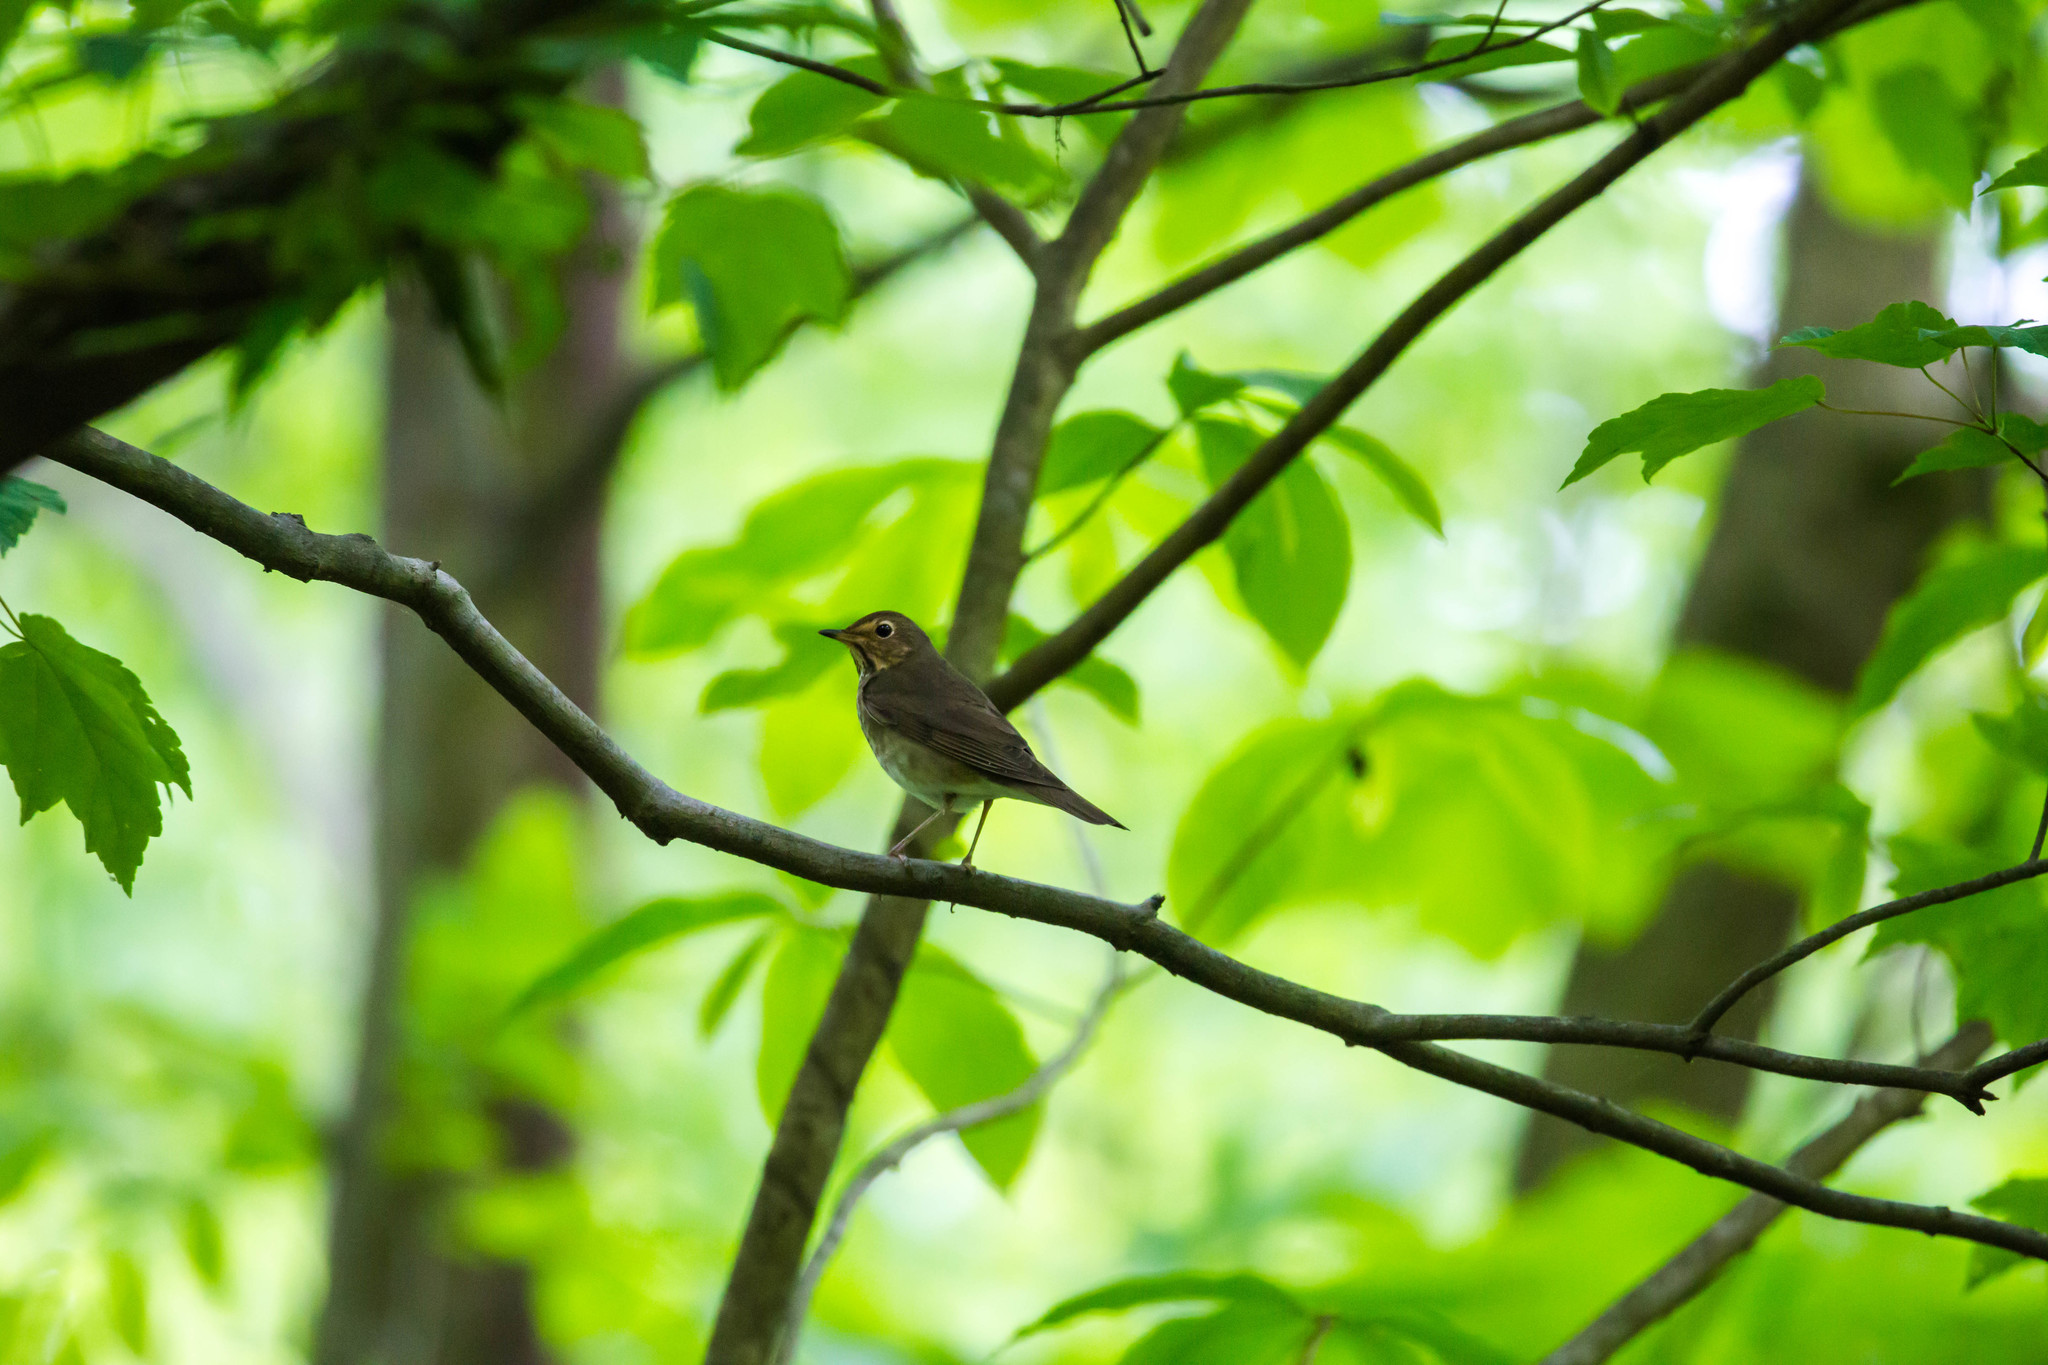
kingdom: Animalia
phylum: Chordata
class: Aves
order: Passeriformes
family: Turdidae
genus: Catharus
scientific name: Catharus ustulatus
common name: Swainson's thrush
